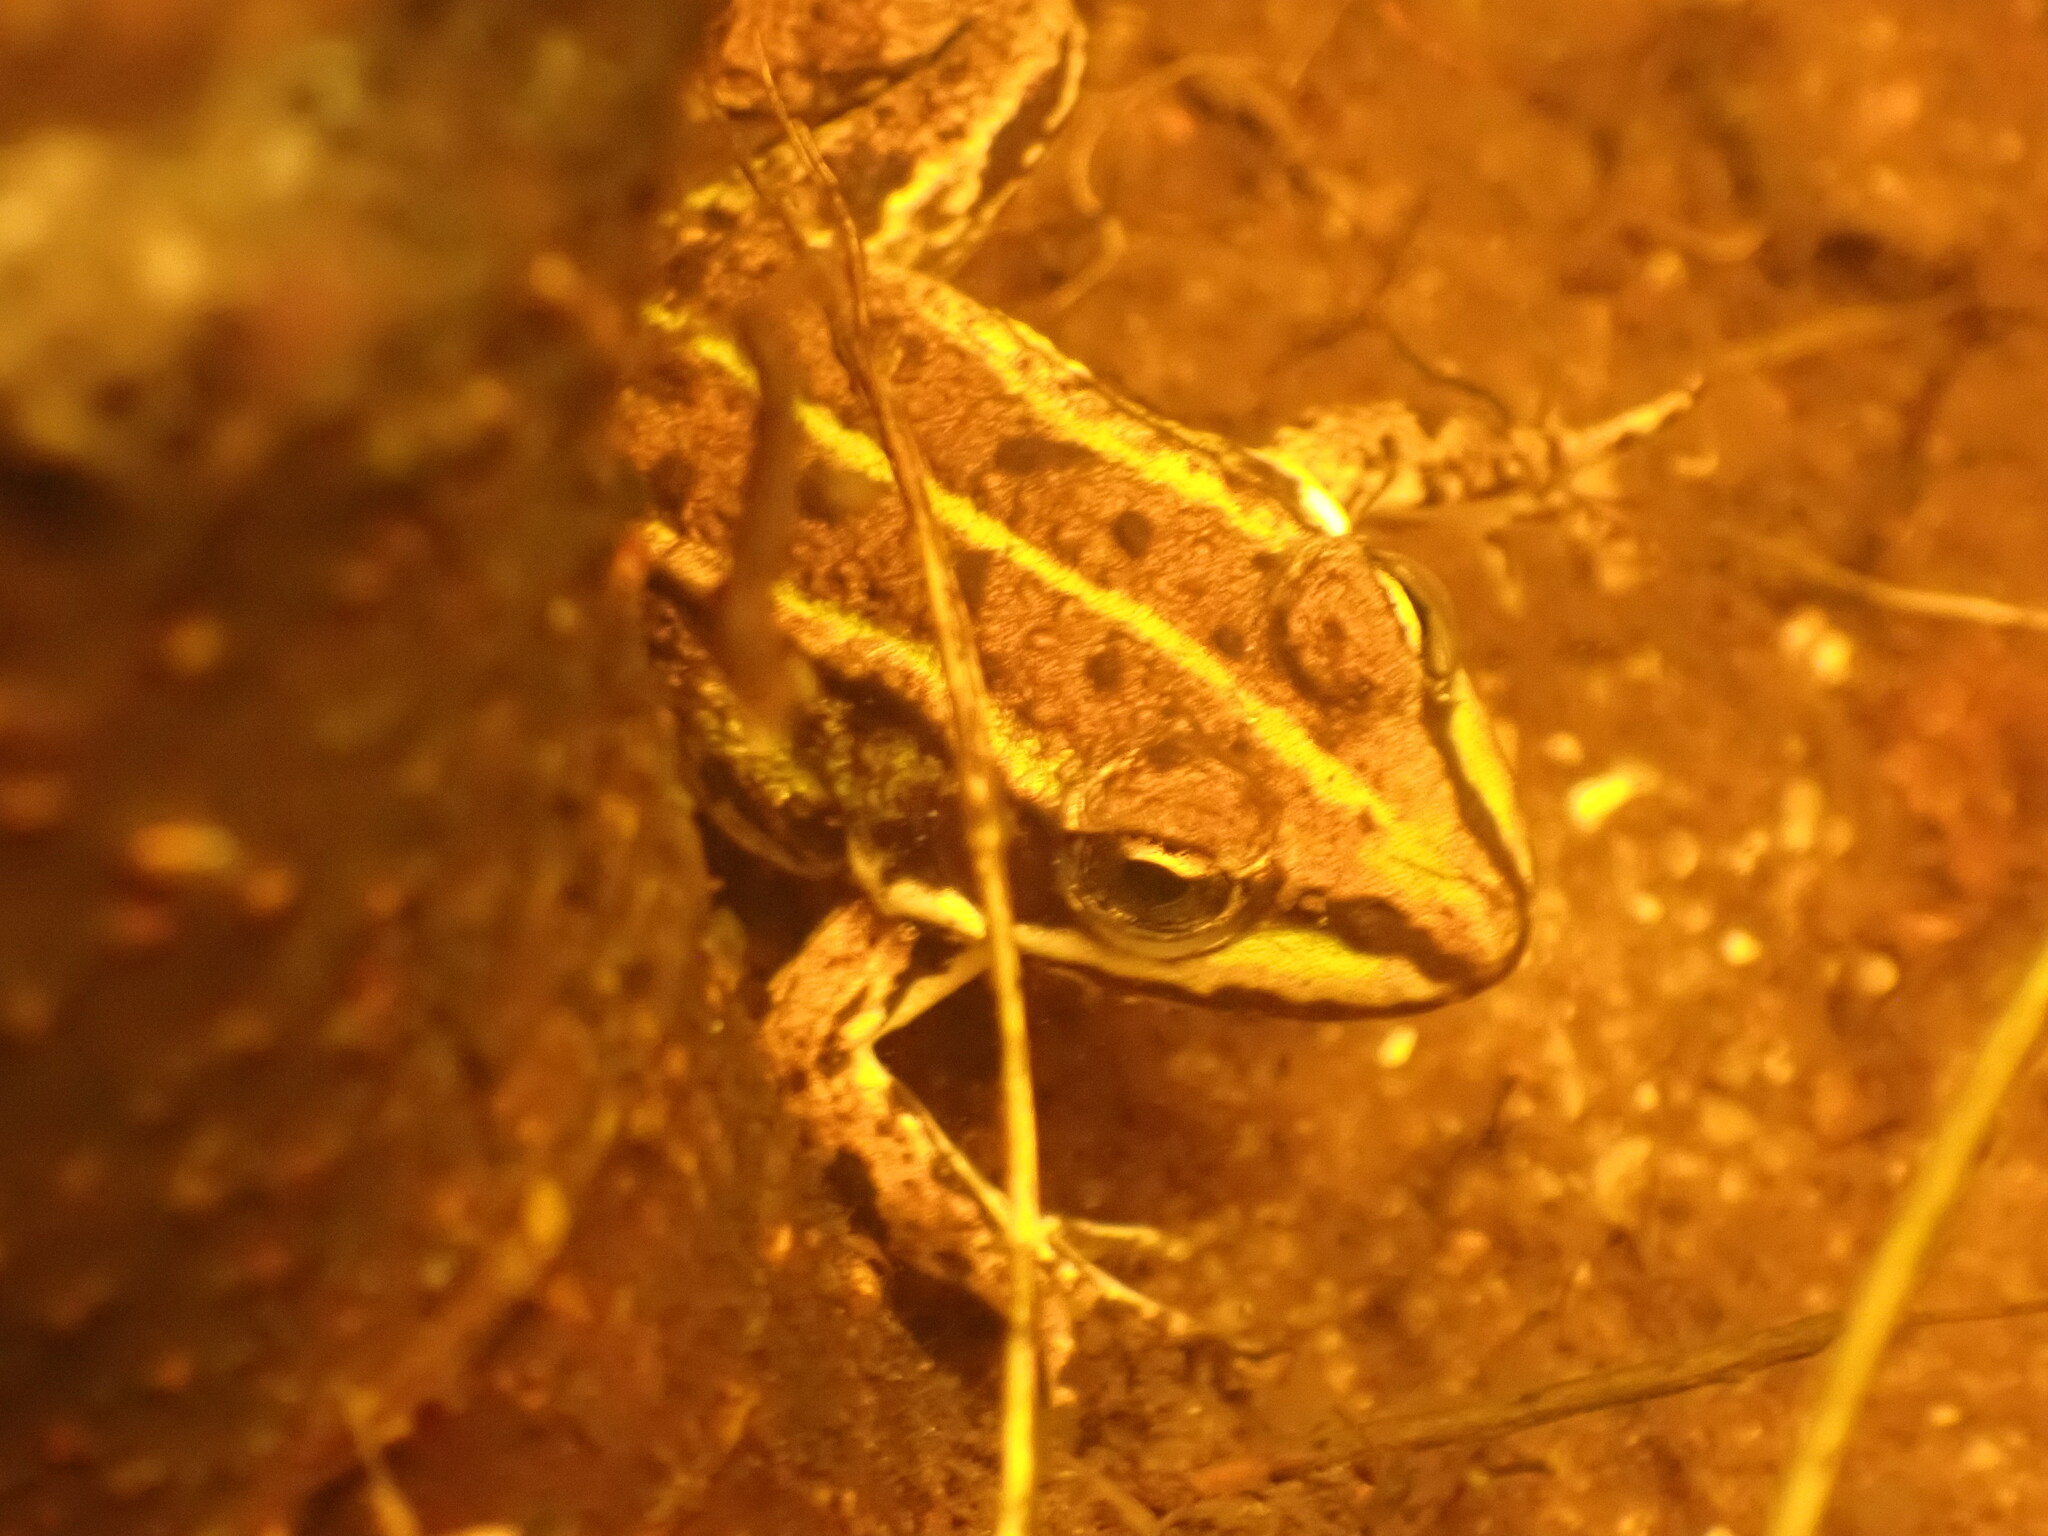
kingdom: Animalia
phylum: Chordata
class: Amphibia
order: Anura
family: Ranidae
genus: Pelophylax
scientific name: Pelophylax lessonae
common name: Pool frog
